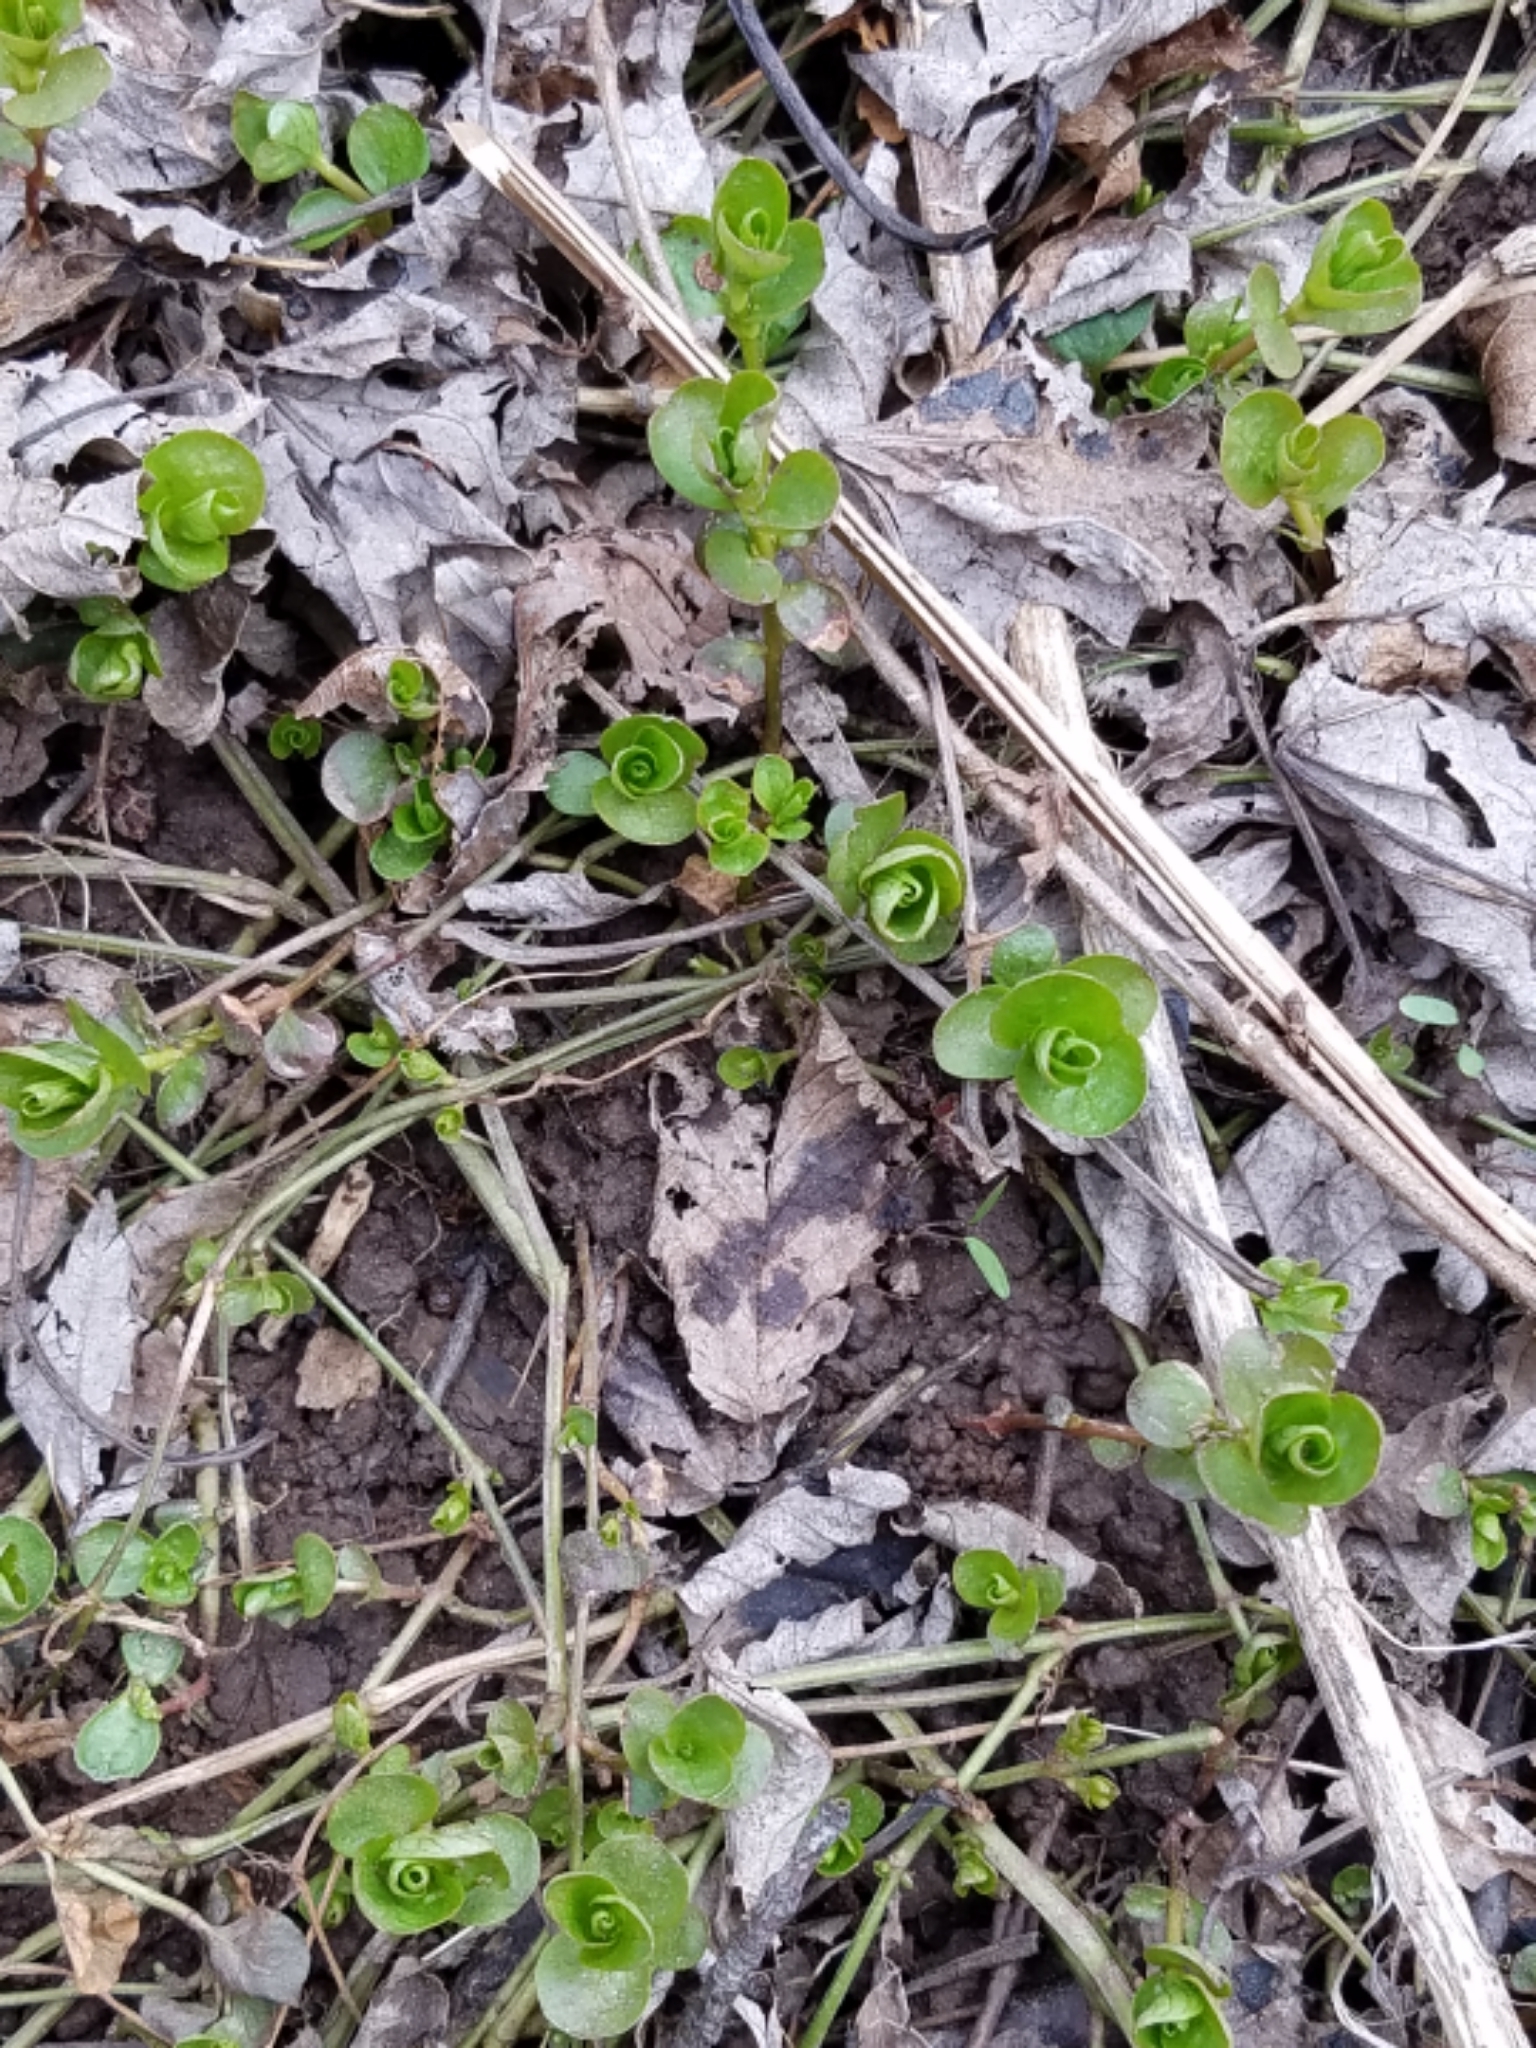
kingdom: Plantae
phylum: Tracheophyta
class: Magnoliopsida
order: Ericales
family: Primulaceae
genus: Lysimachia
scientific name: Lysimachia nummularia
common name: Moneywort
